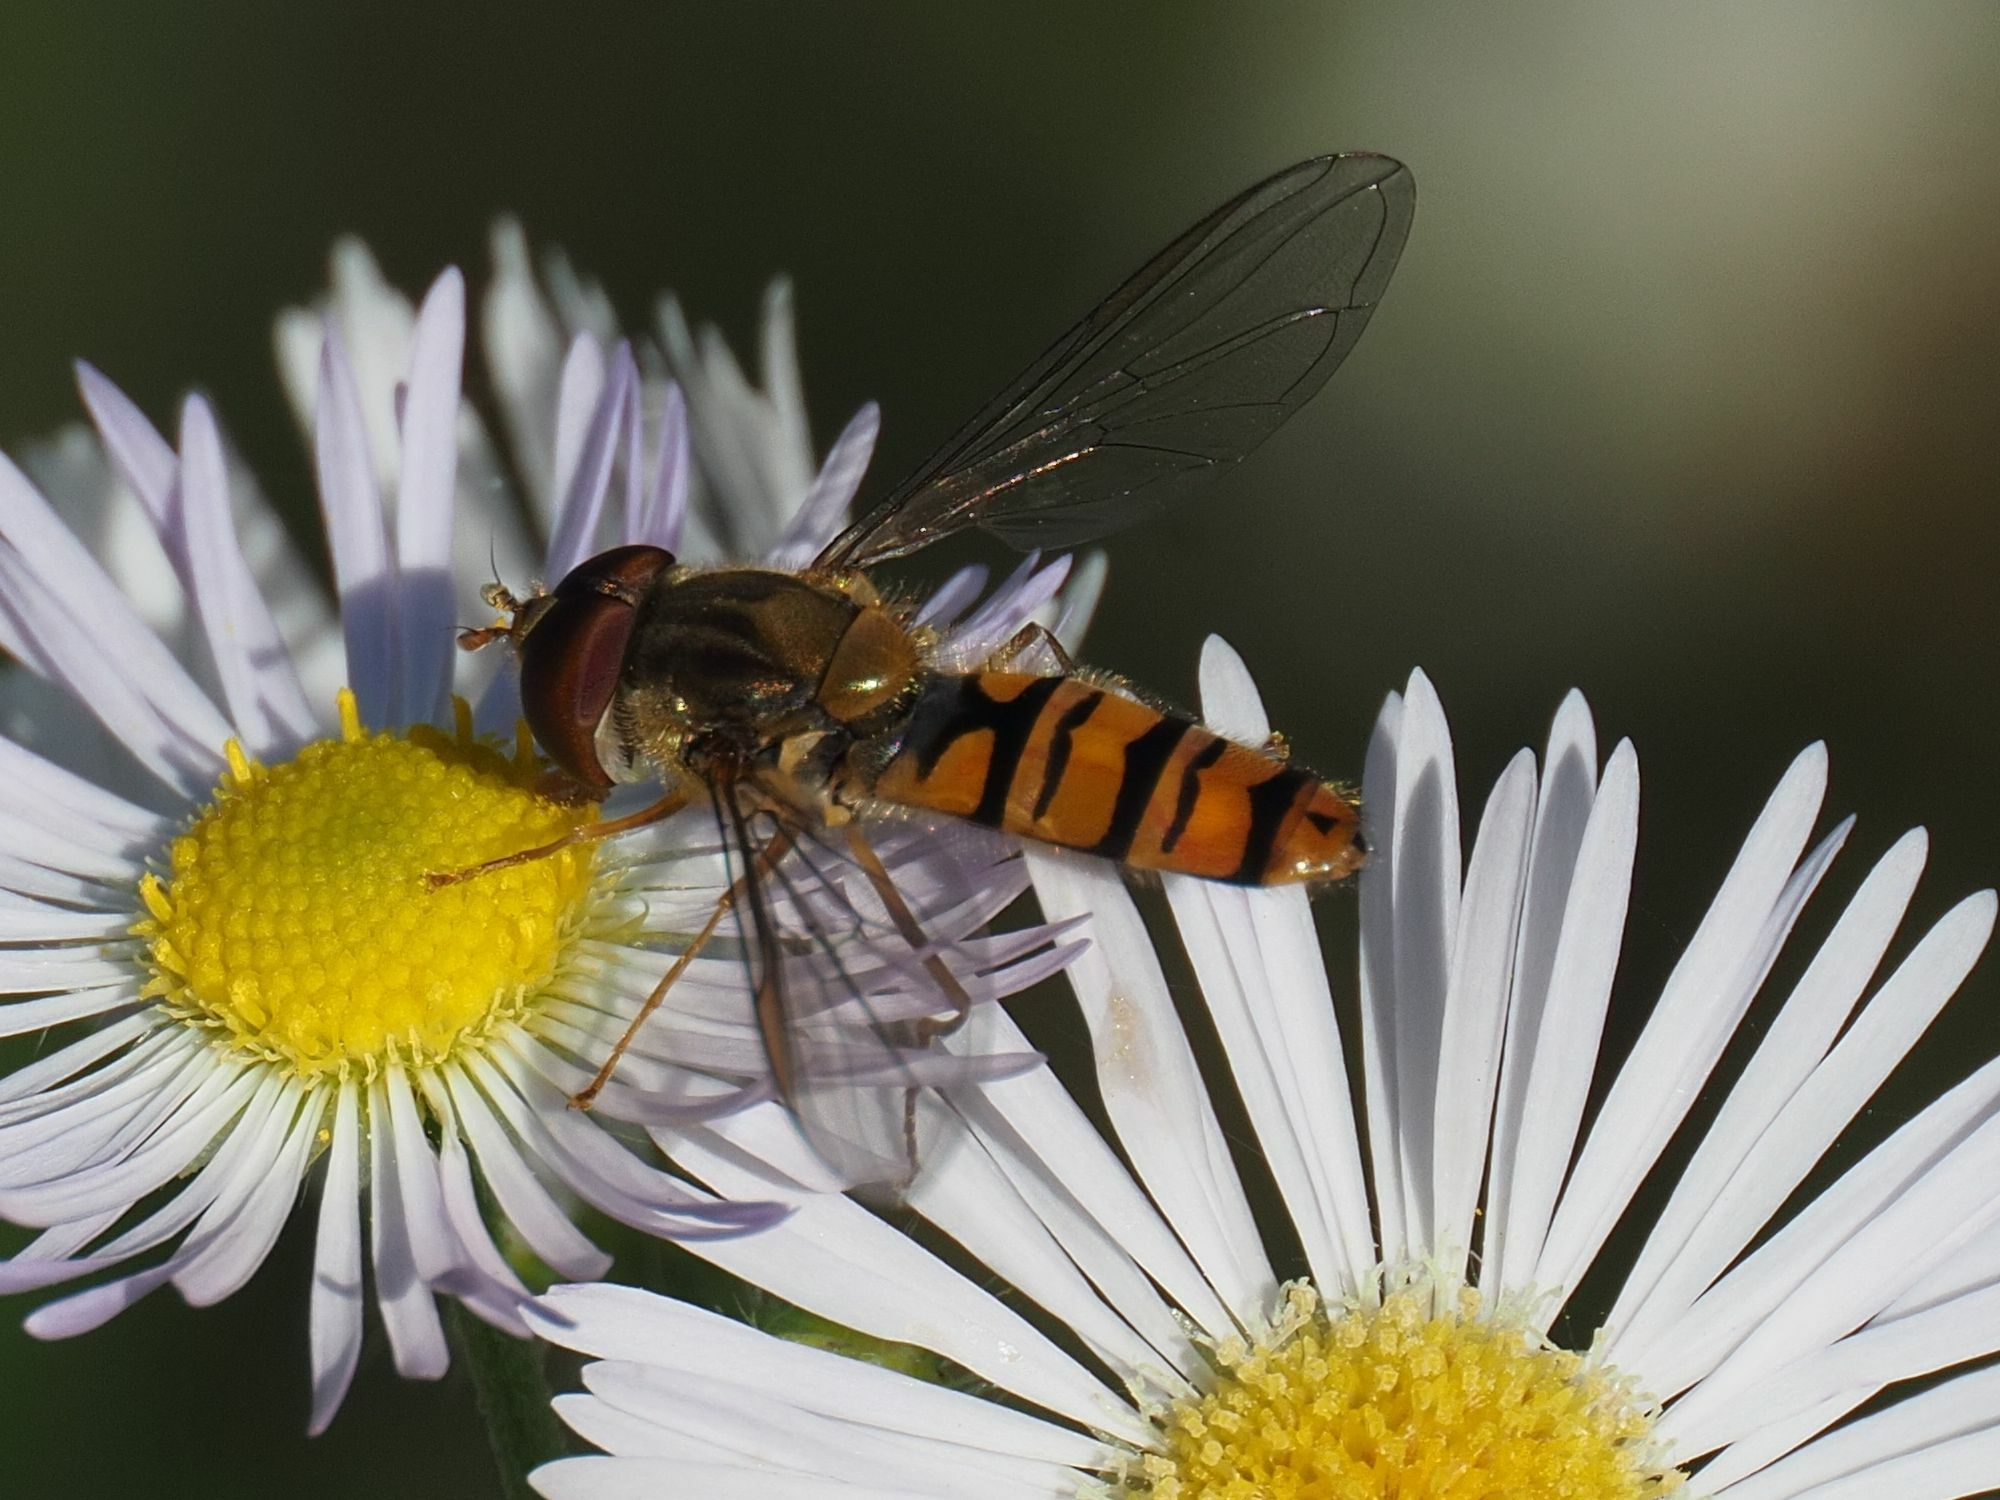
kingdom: Animalia
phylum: Arthropoda
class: Insecta
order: Diptera
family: Syrphidae
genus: Episyrphus
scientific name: Episyrphus balteatus
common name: Marmalade hoverfly
